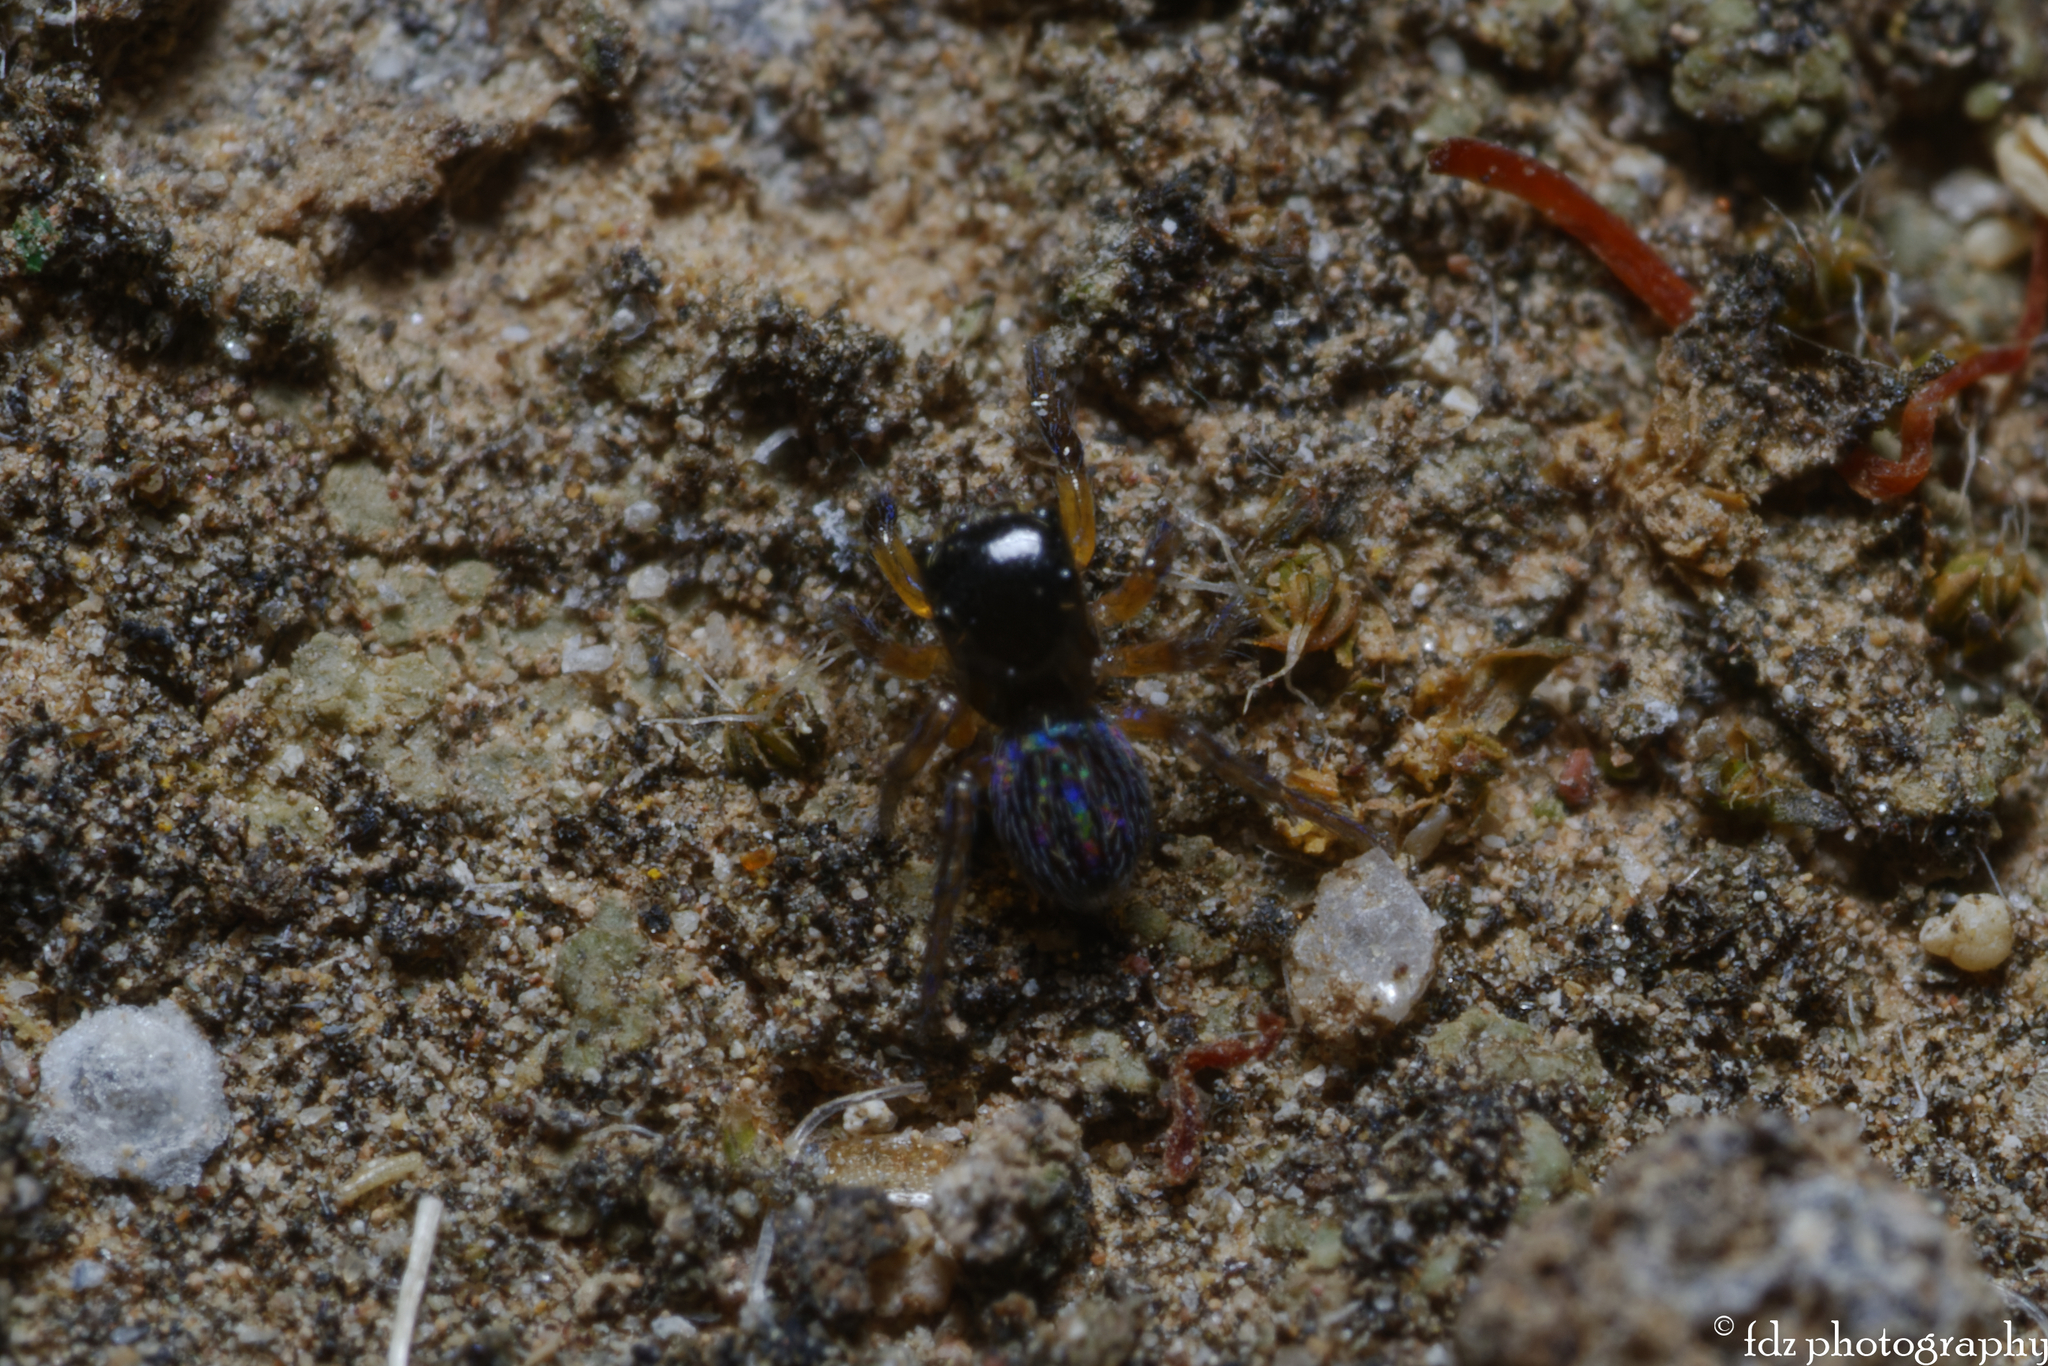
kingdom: Animalia
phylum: Arthropoda
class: Arachnida
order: Araneae
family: Salticidae
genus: Euophrys
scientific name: Euophrys sulphurea
